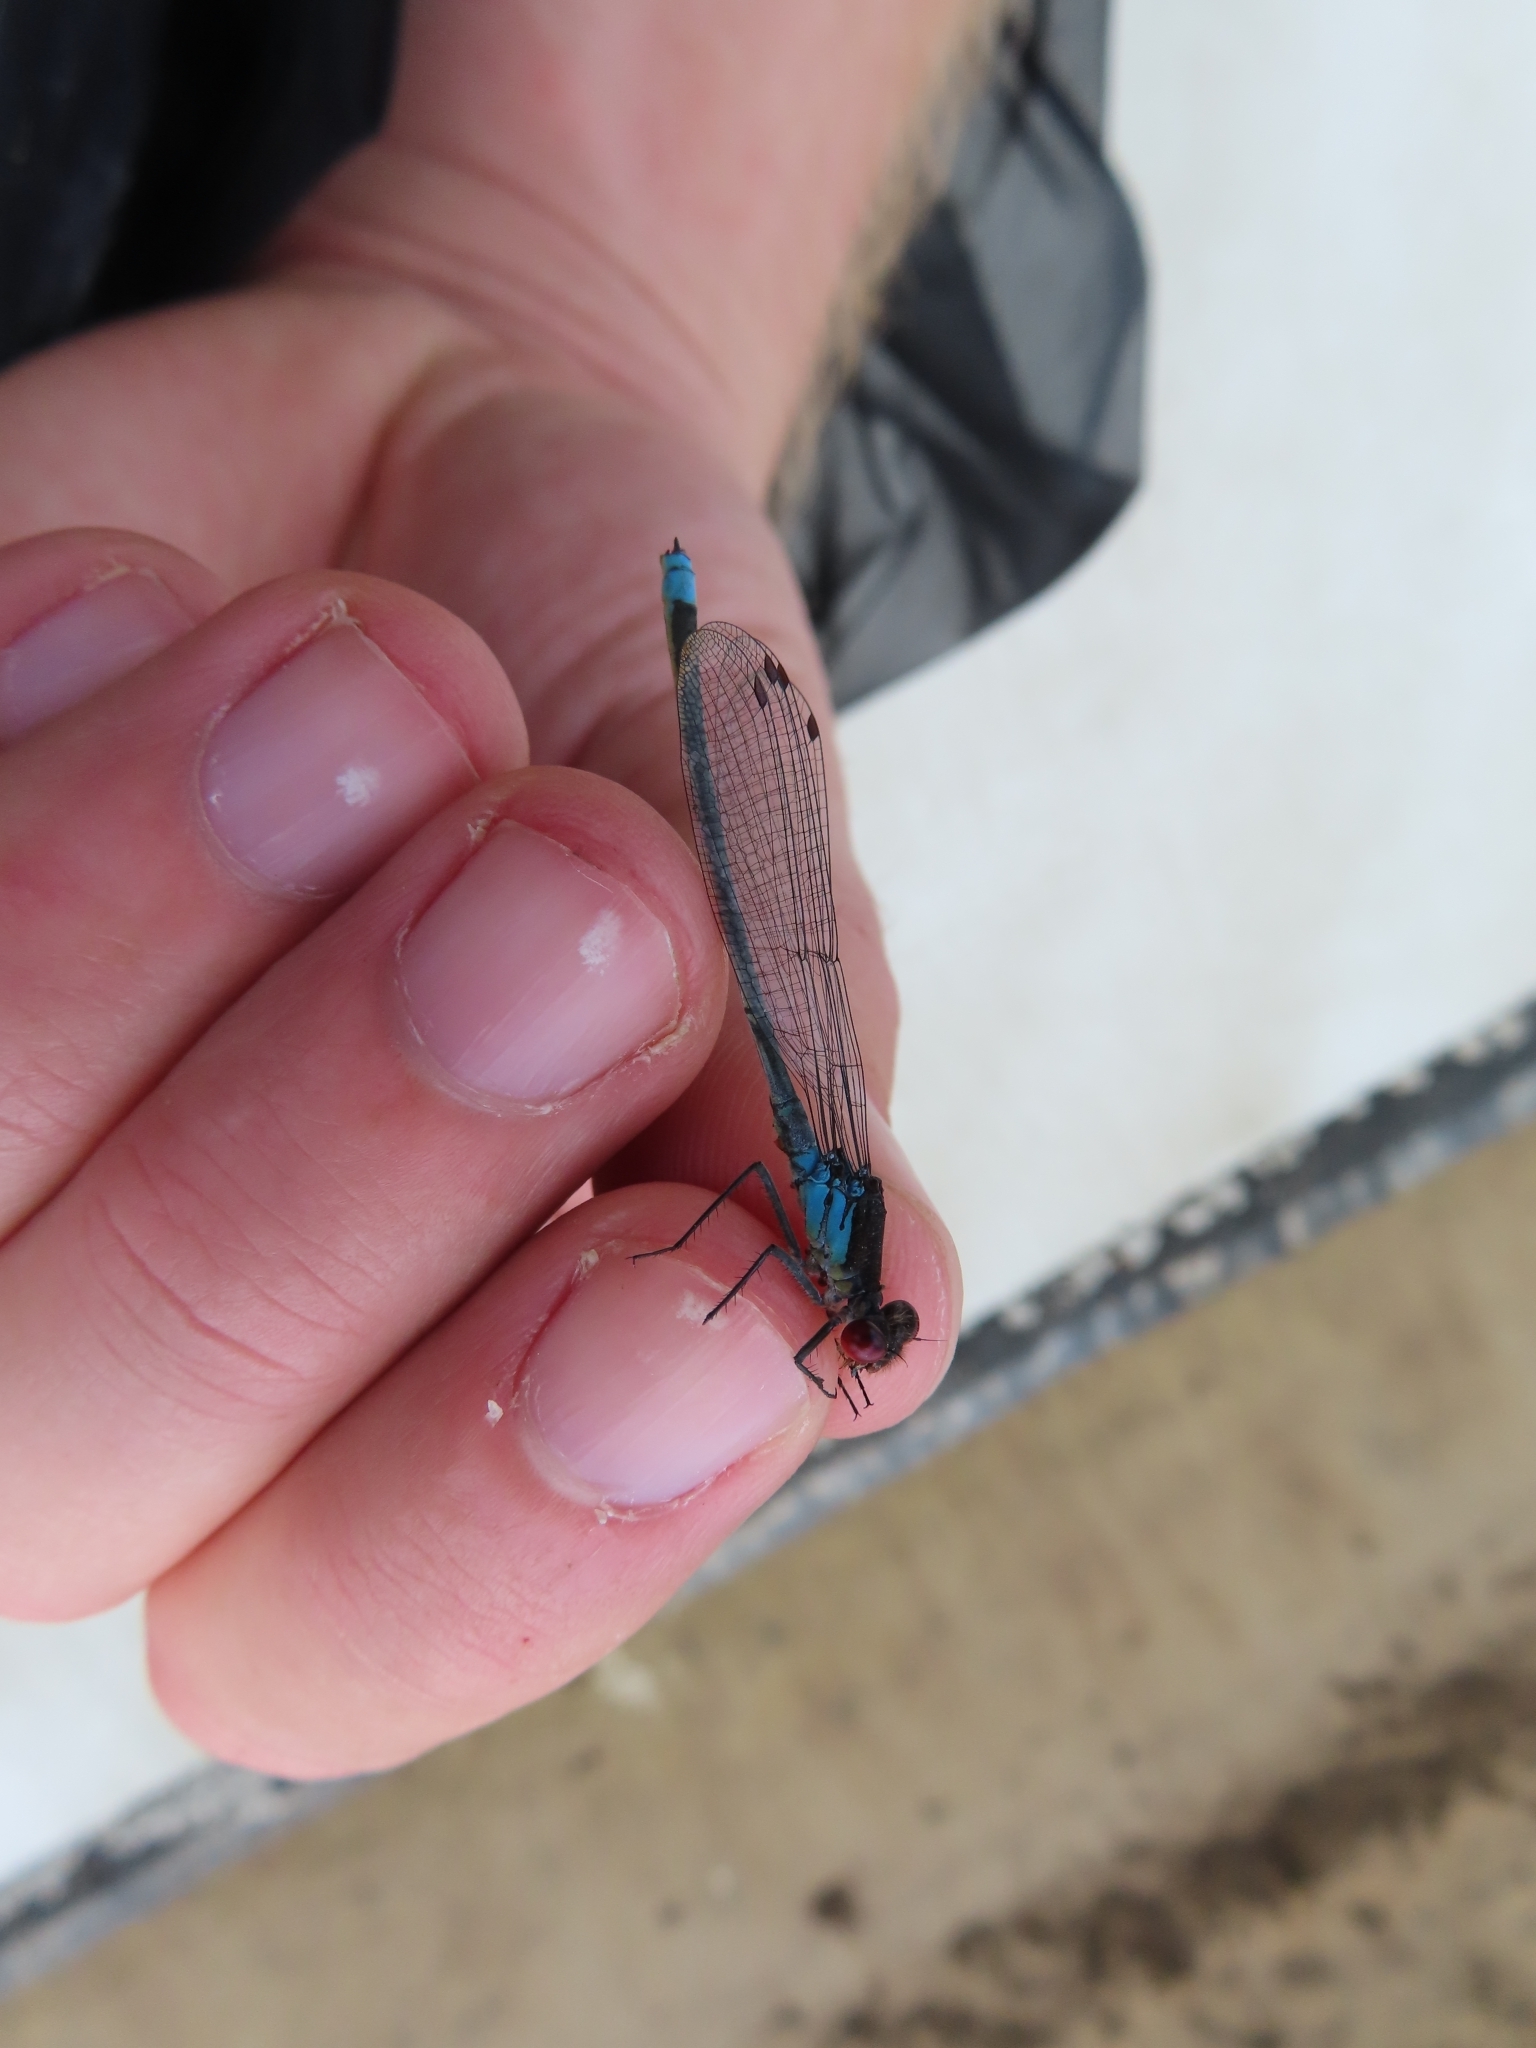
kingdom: Animalia
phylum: Arthropoda
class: Insecta
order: Odonata
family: Coenagrionidae
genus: Erythromma
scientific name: Erythromma najas
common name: Red-eyed damselfly
